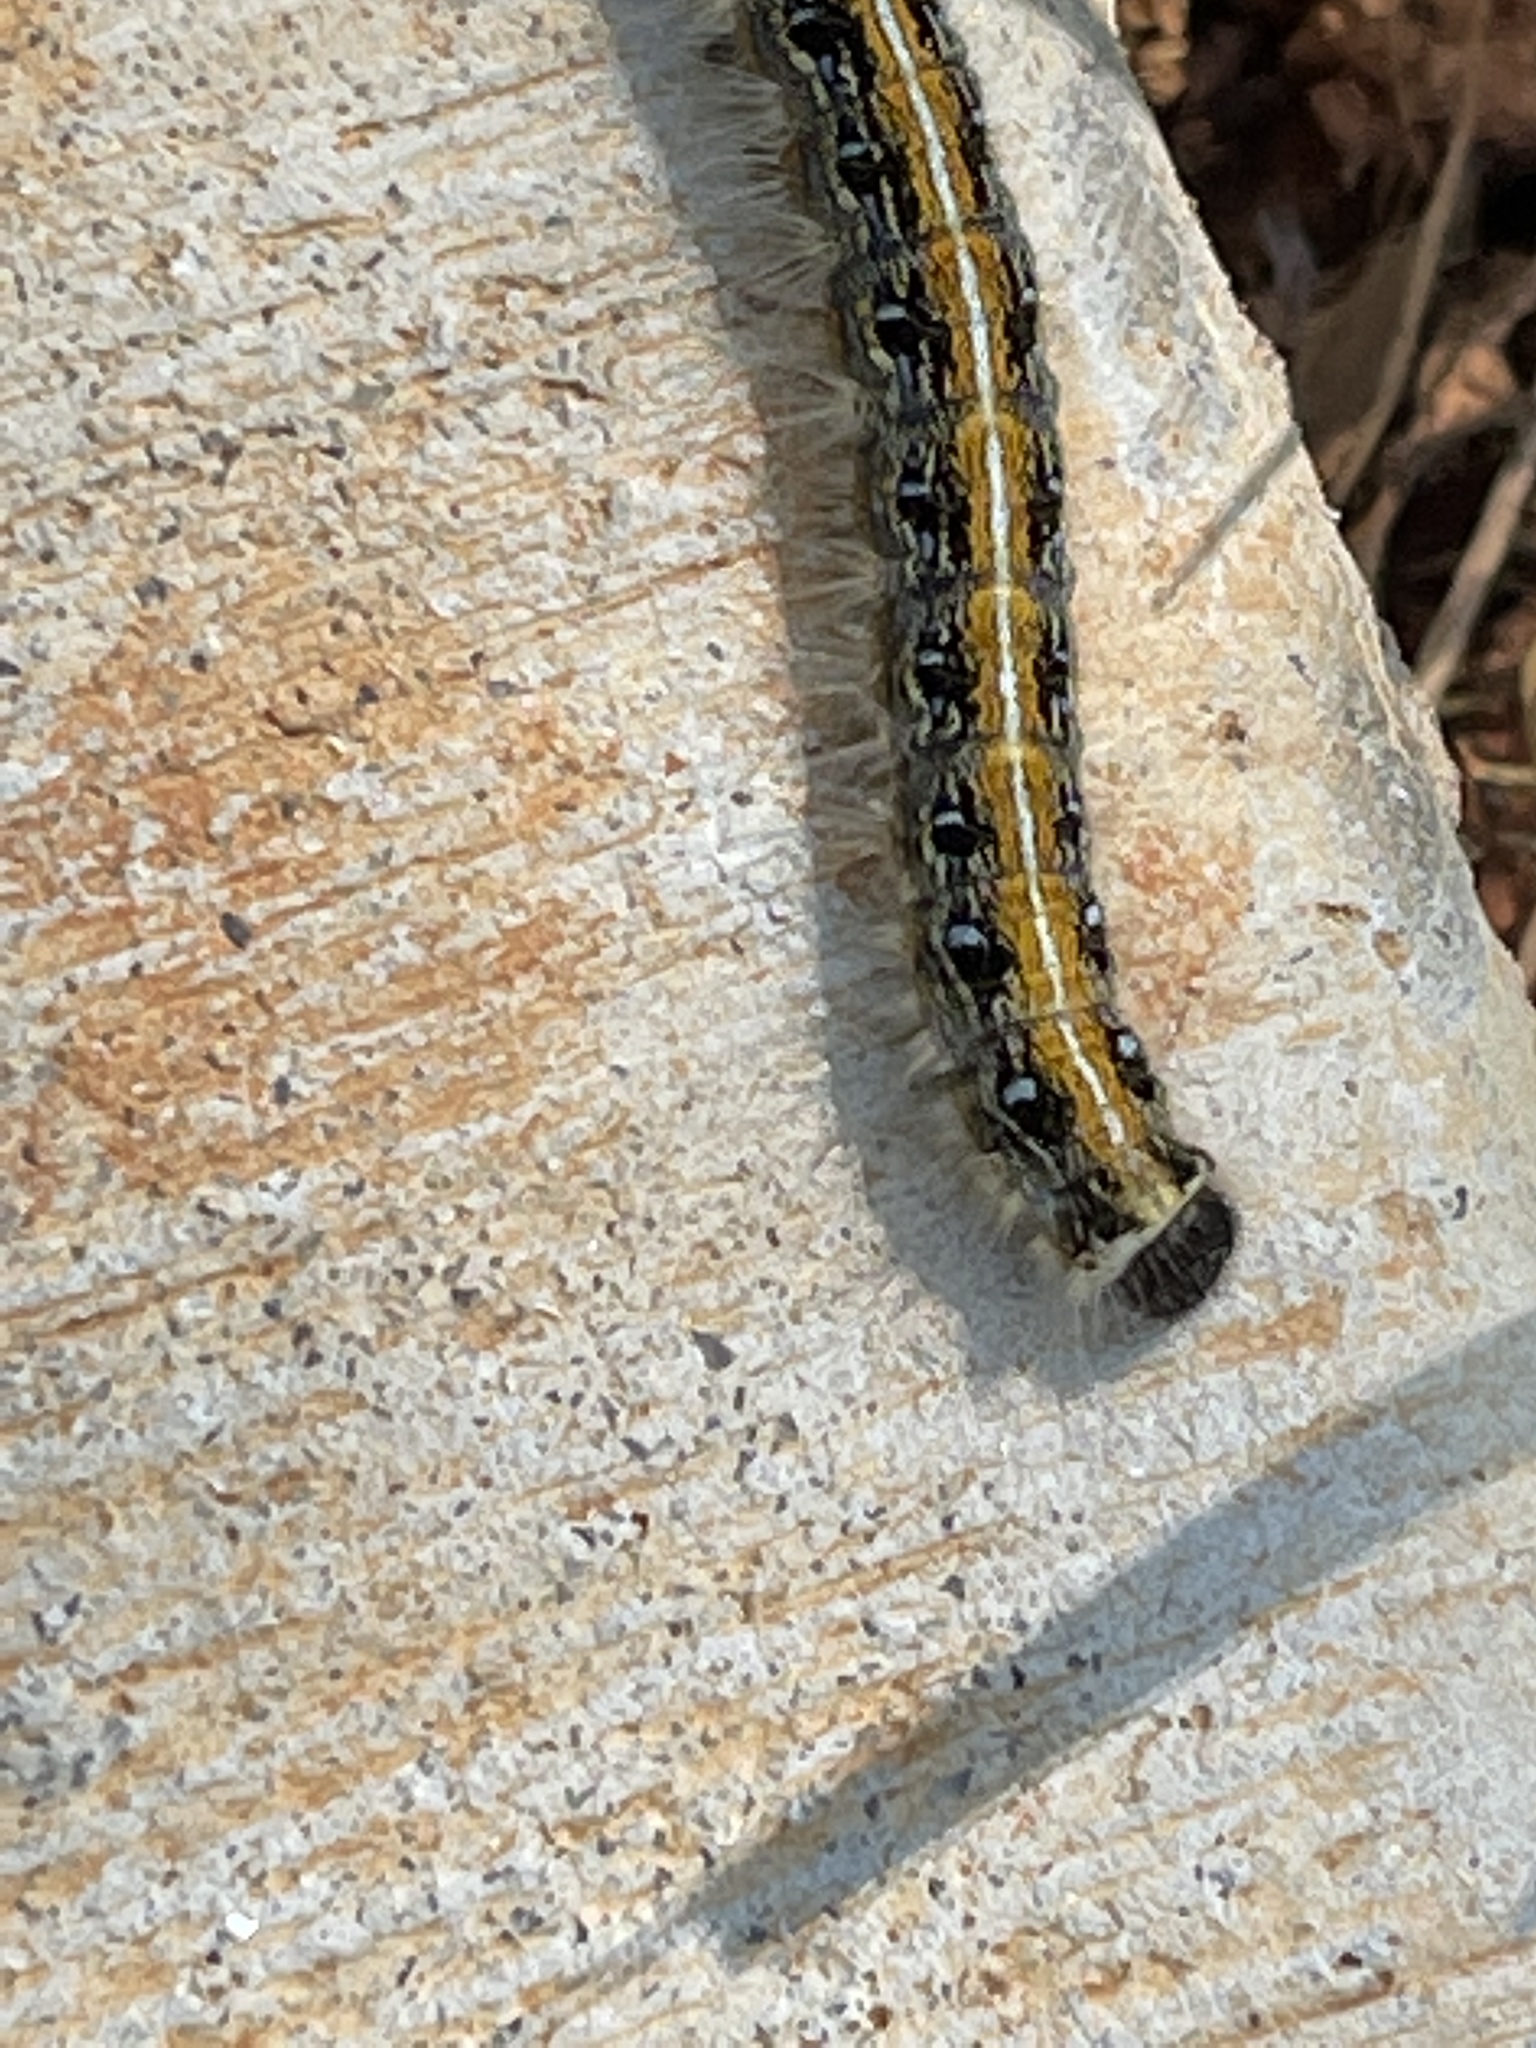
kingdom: Animalia
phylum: Arthropoda
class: Insecta
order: Lepidoptera
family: Lasiocampidae
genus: Malacosoma
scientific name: Malacosoma americana
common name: Eastern tent caterpillar moth
